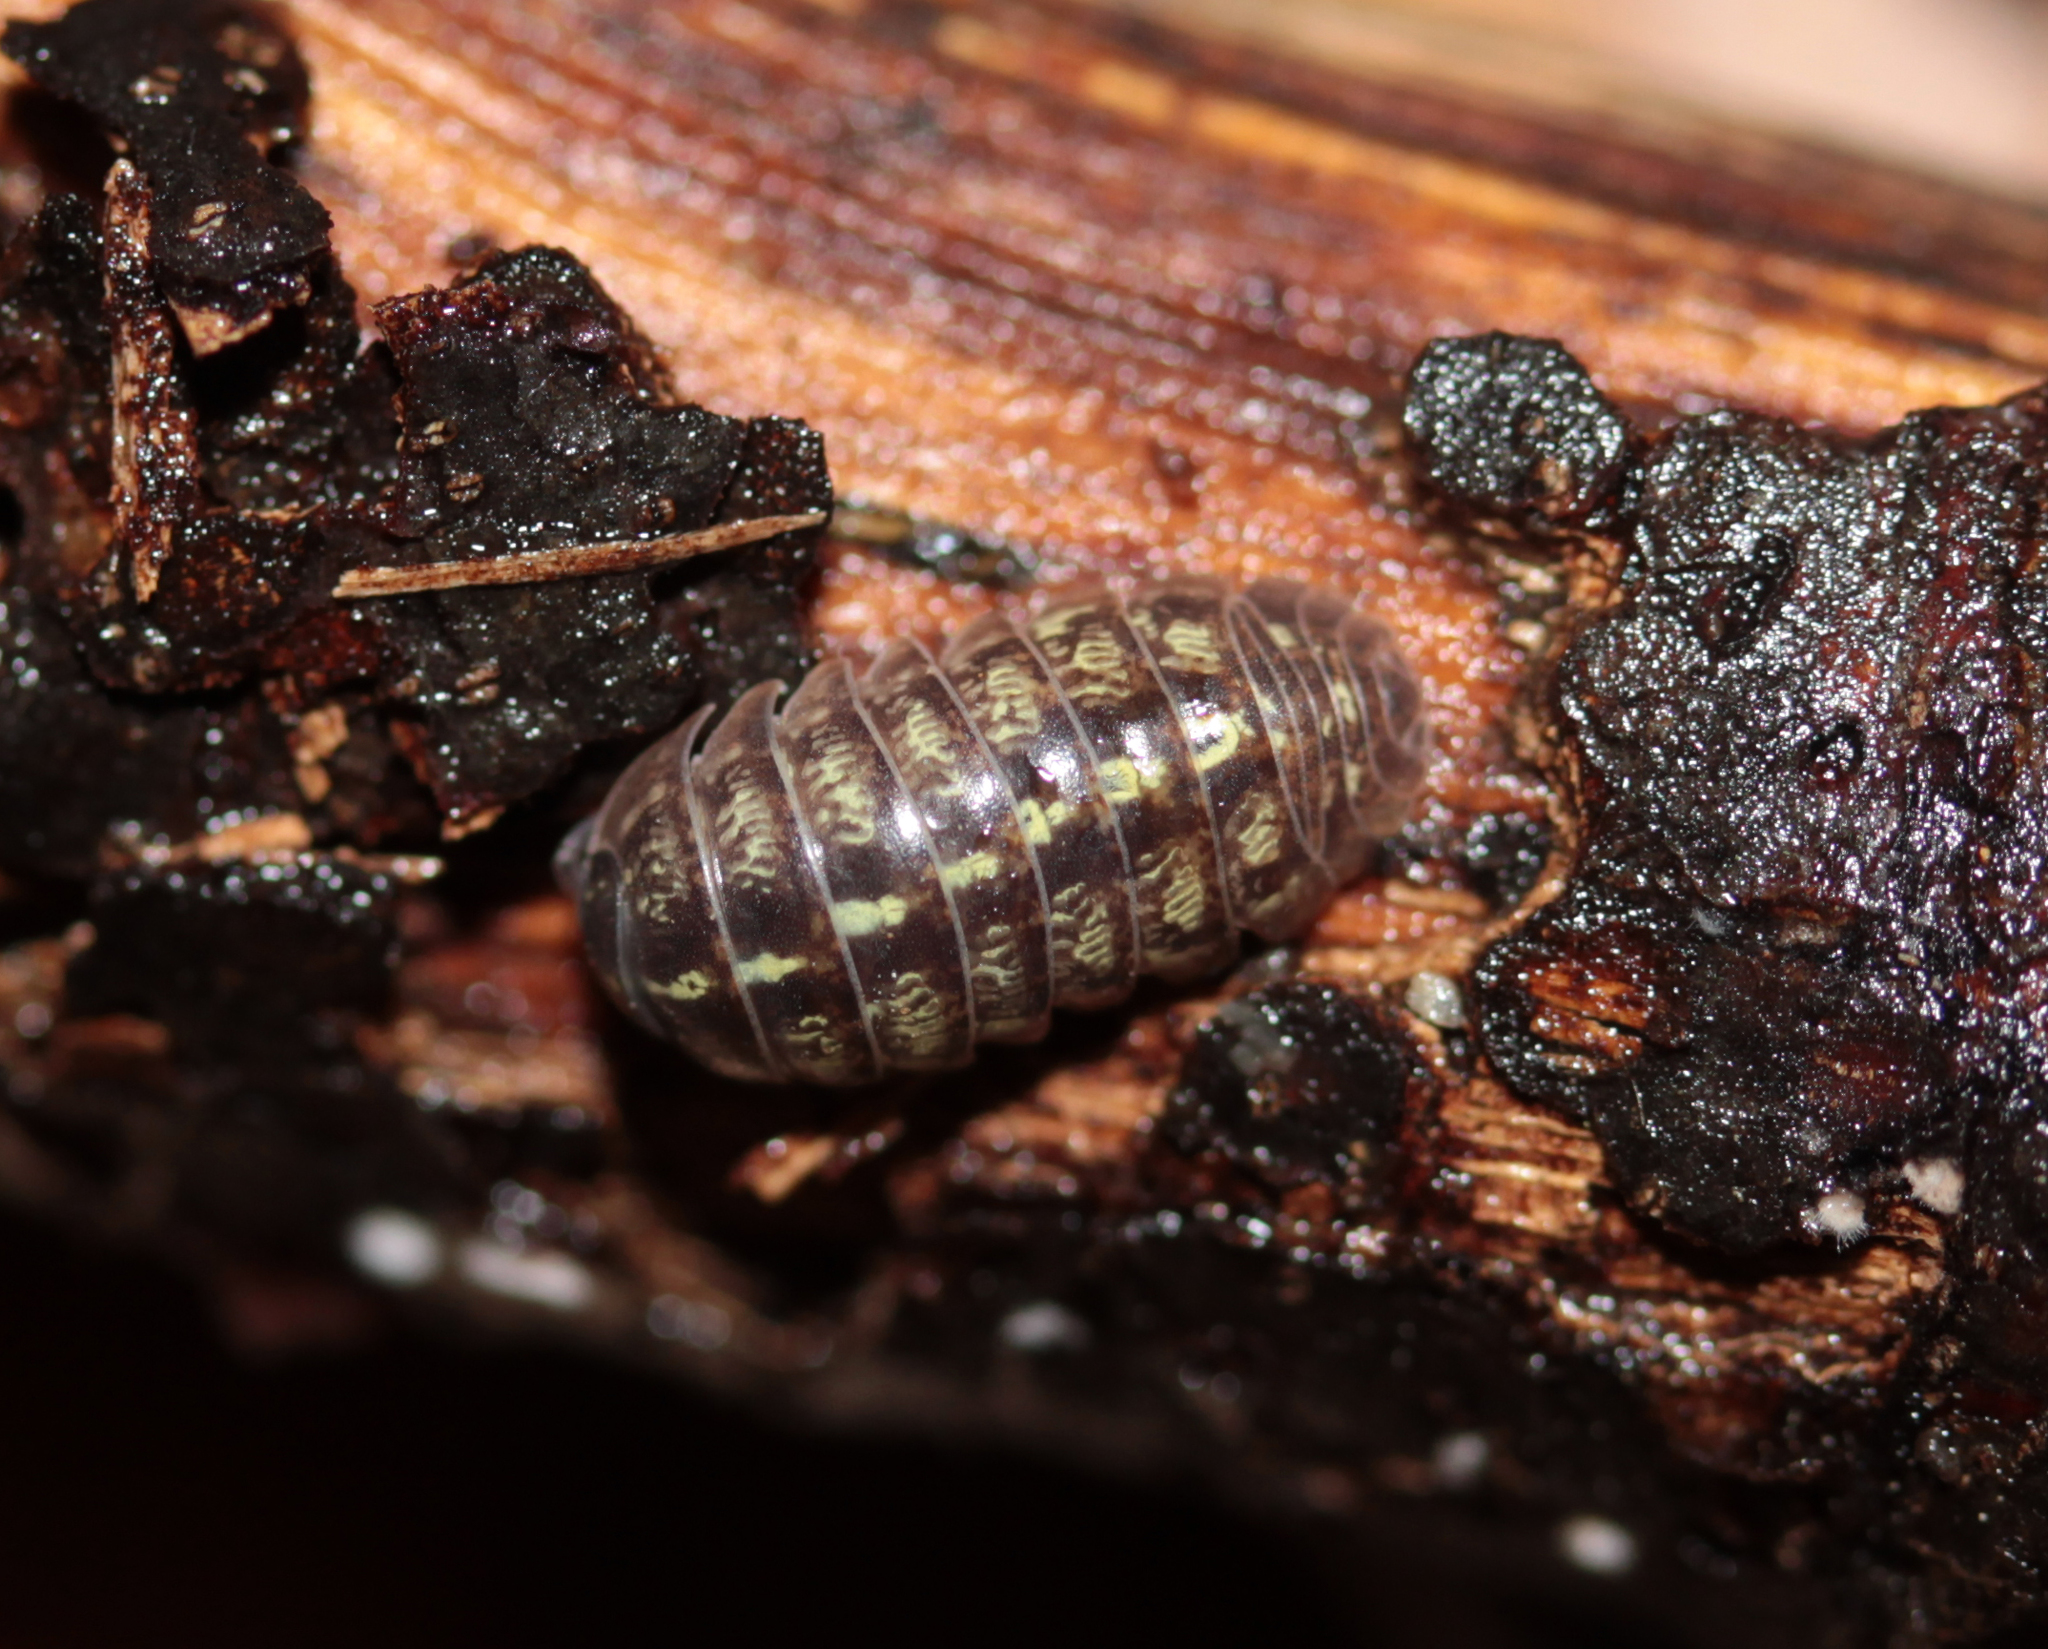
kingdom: Animalia
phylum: Arthropoda
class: Malacostraca
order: Isopoda
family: Armadillidiidae
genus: Armadillidium
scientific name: Armadillidium vulgare
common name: Common pill woodlouse
